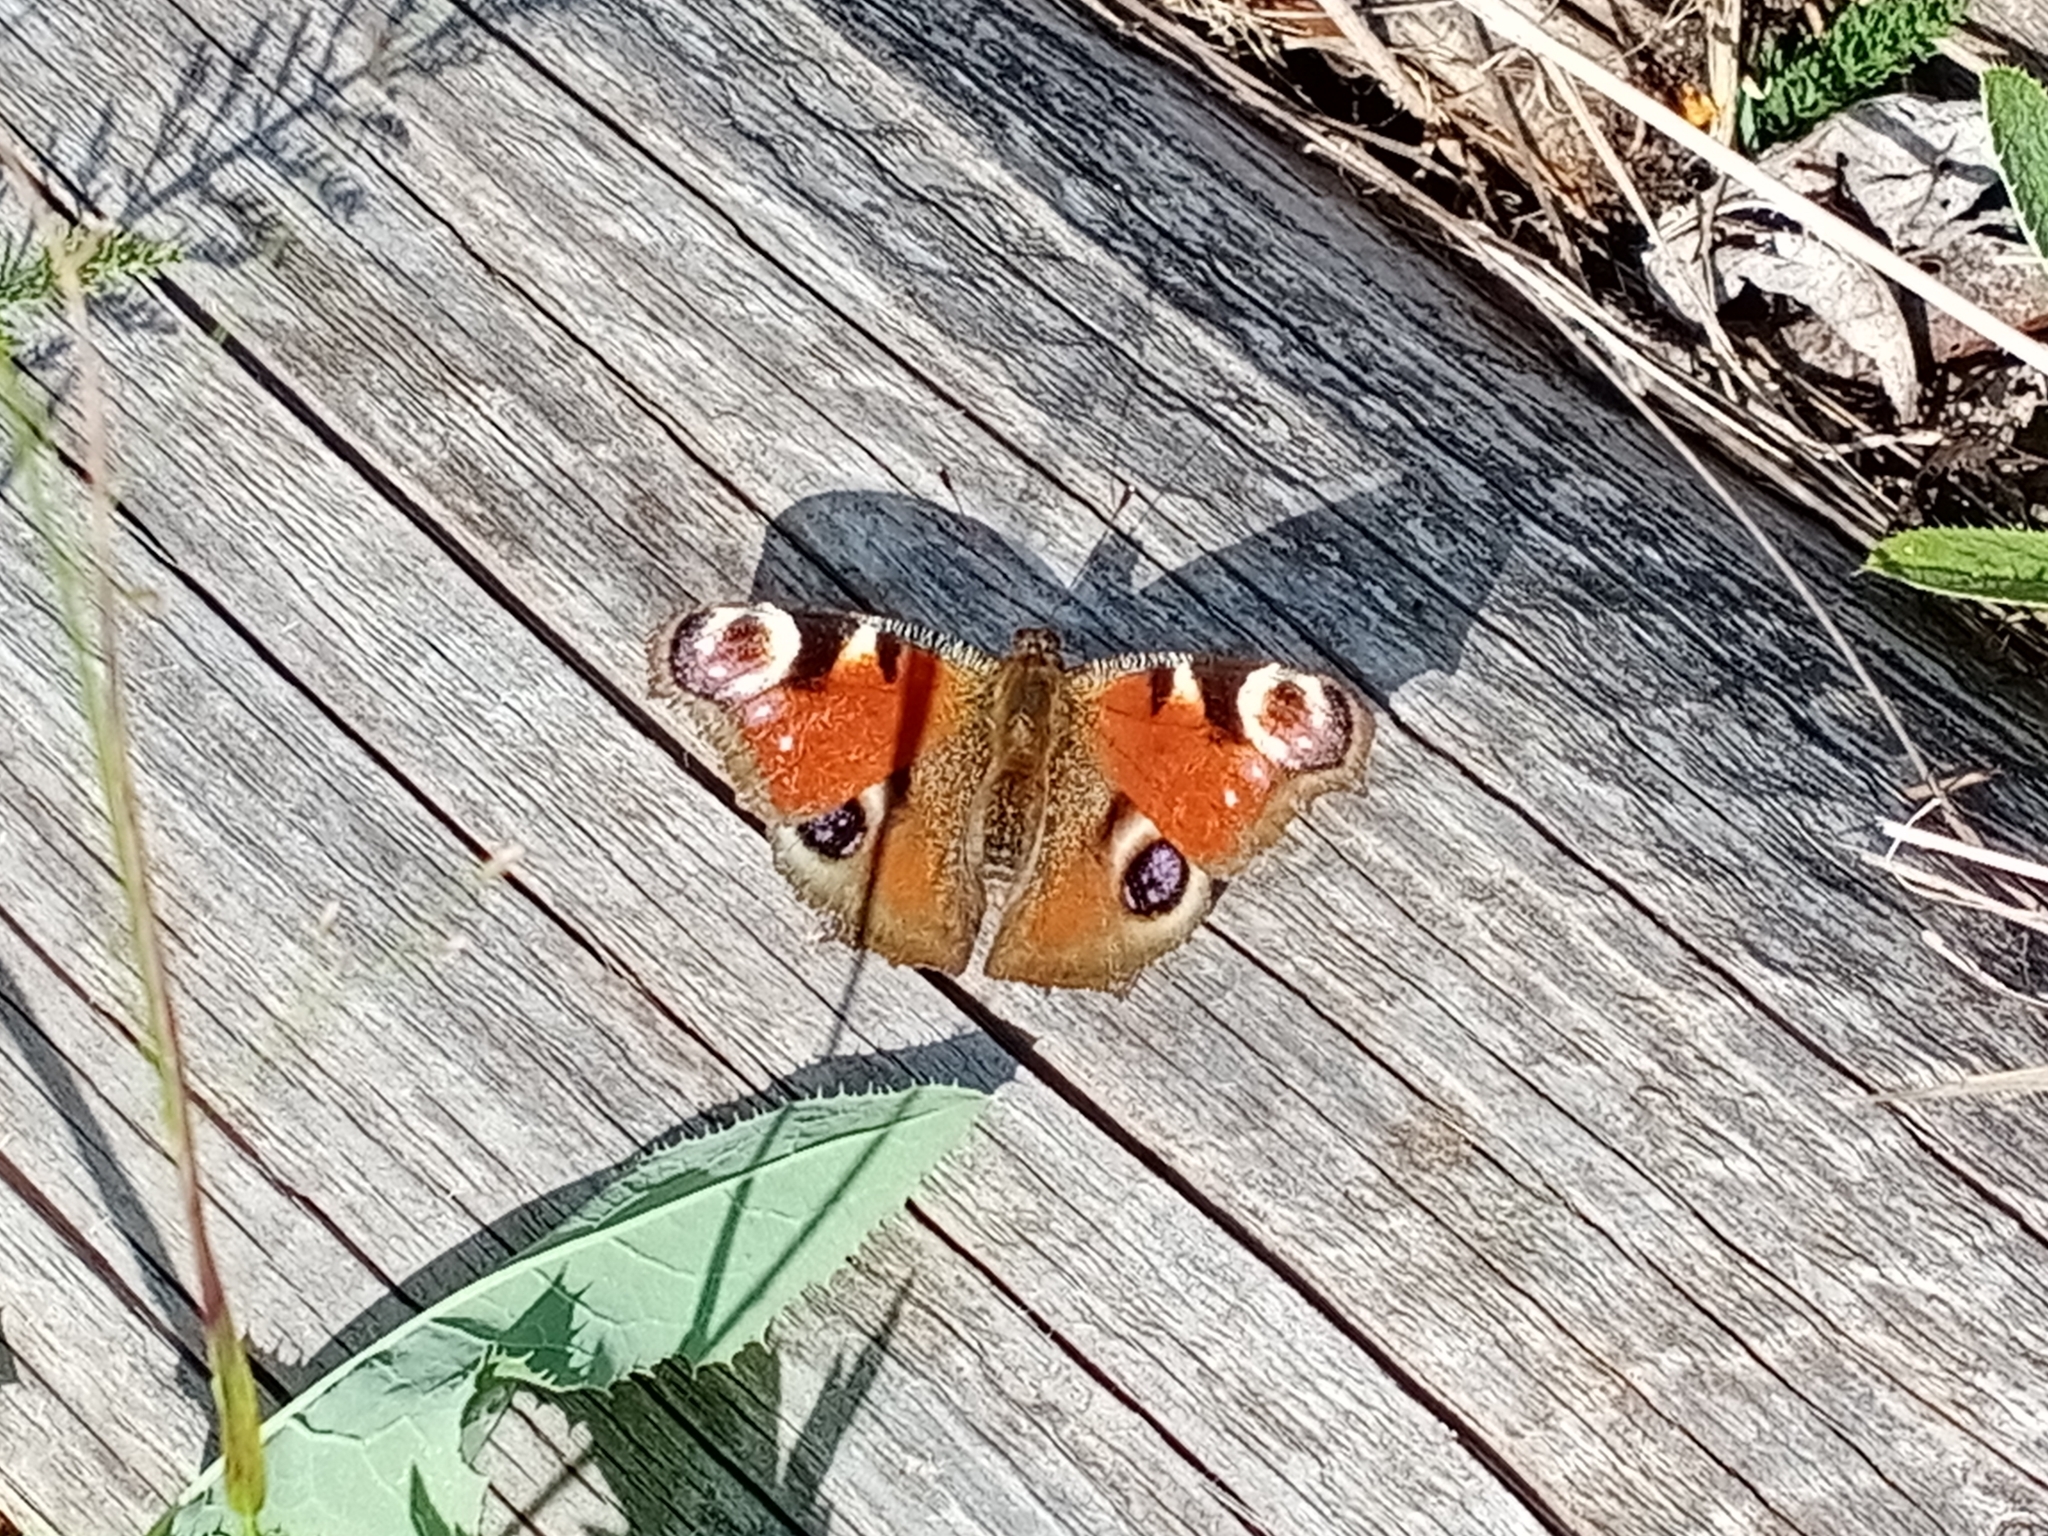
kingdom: Animalia
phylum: Arthropoda
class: Insecta
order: Lepidoptera
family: Nymphalidae
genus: Aglais
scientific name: Aglais io
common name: Peacock
